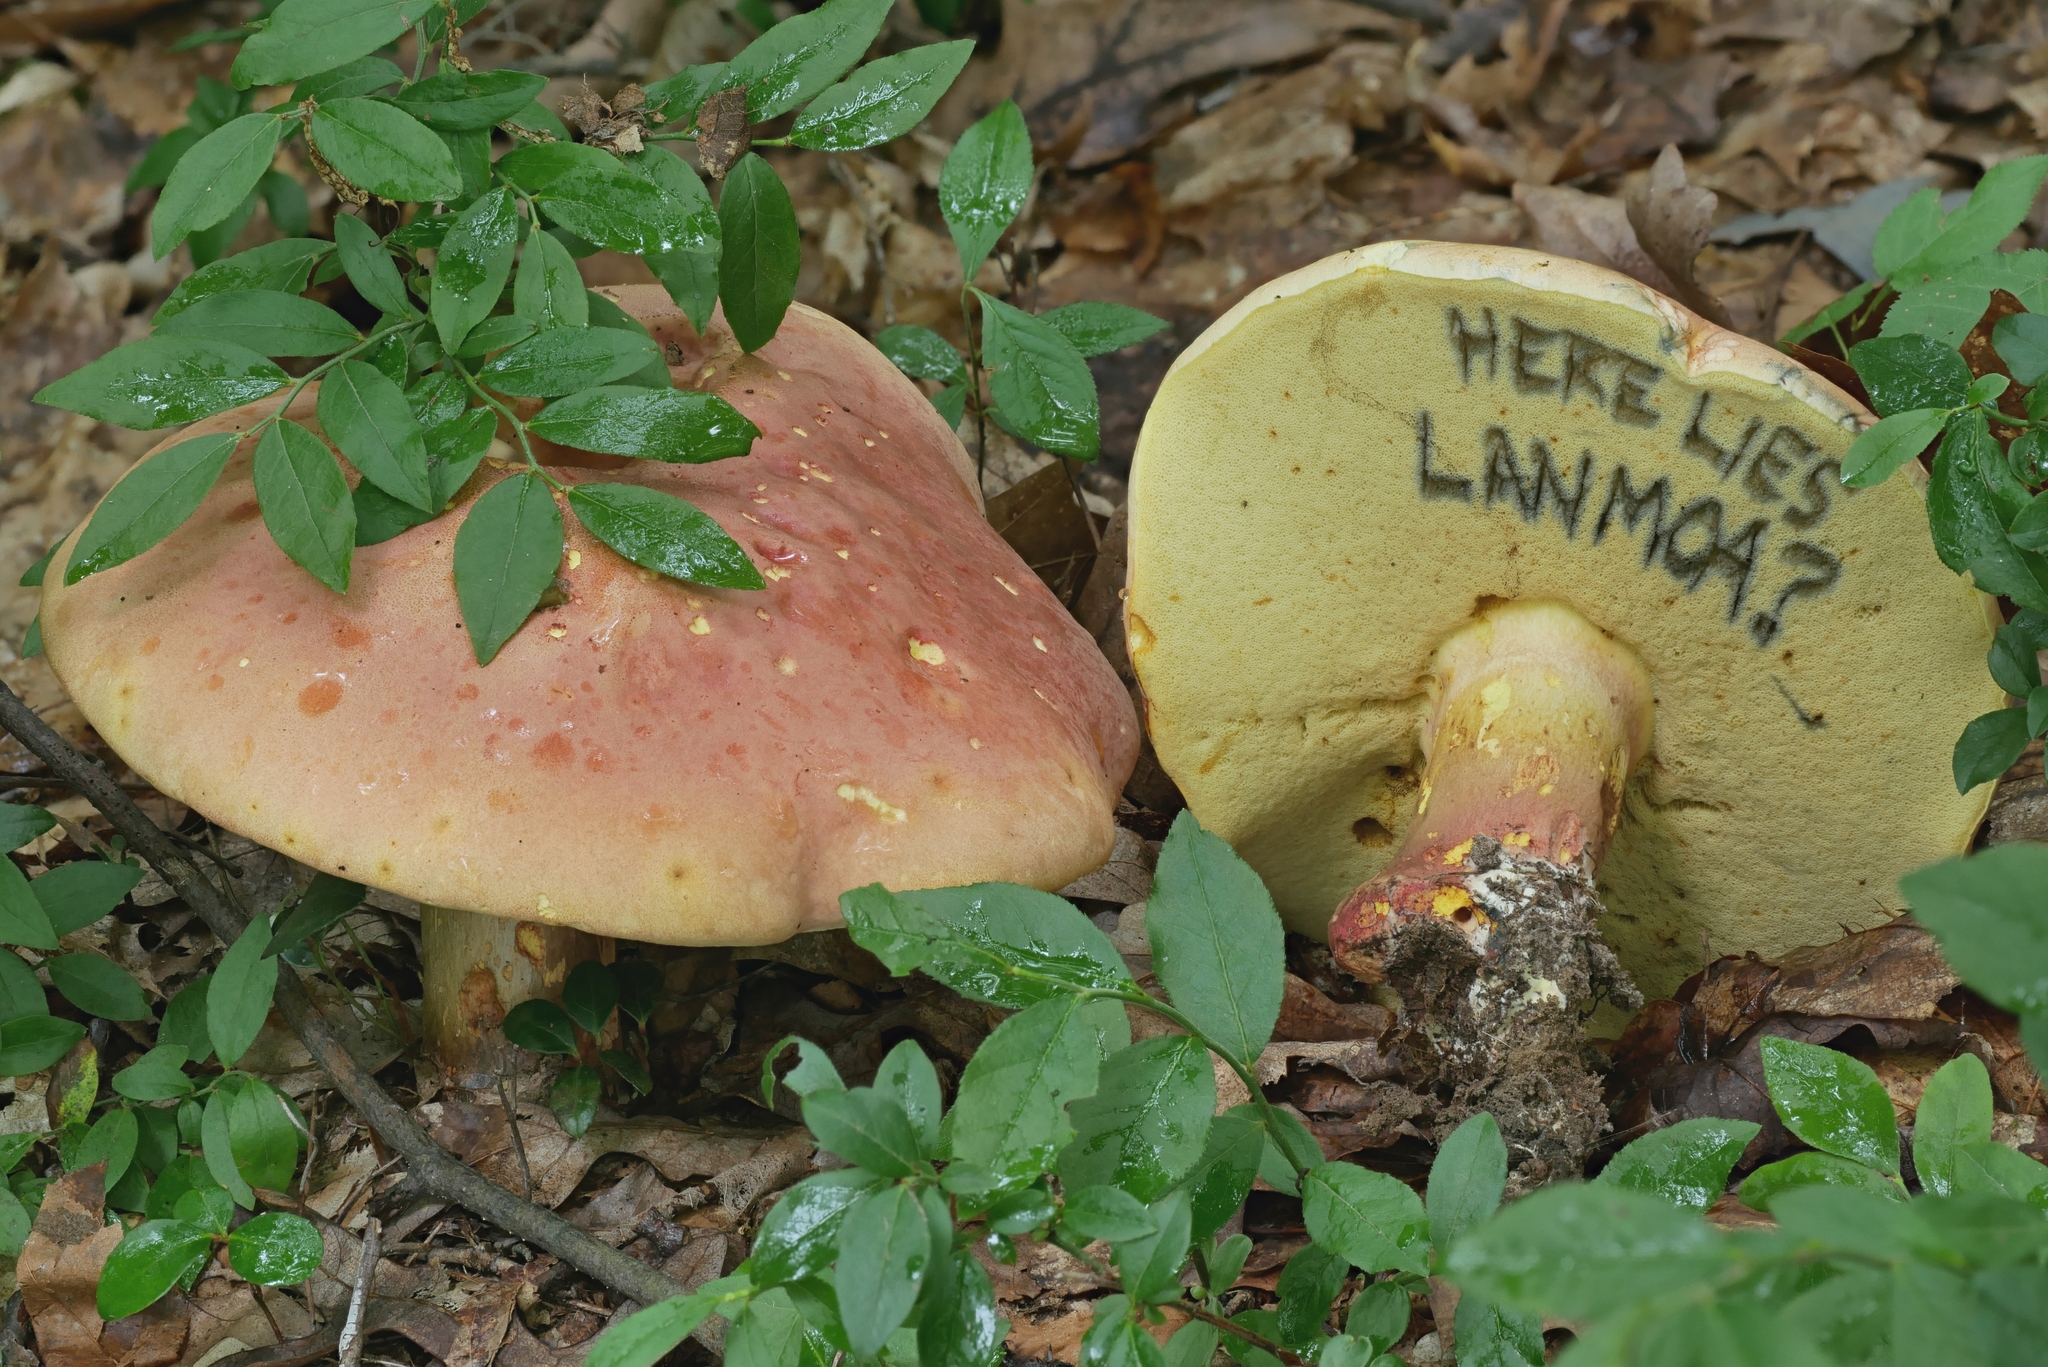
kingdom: Fungi
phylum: Basidiomycota
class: Agaricomycetes
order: Boletales
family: Boletaceae
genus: Lanmaoa
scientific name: Lanmaoa pallidorosea
